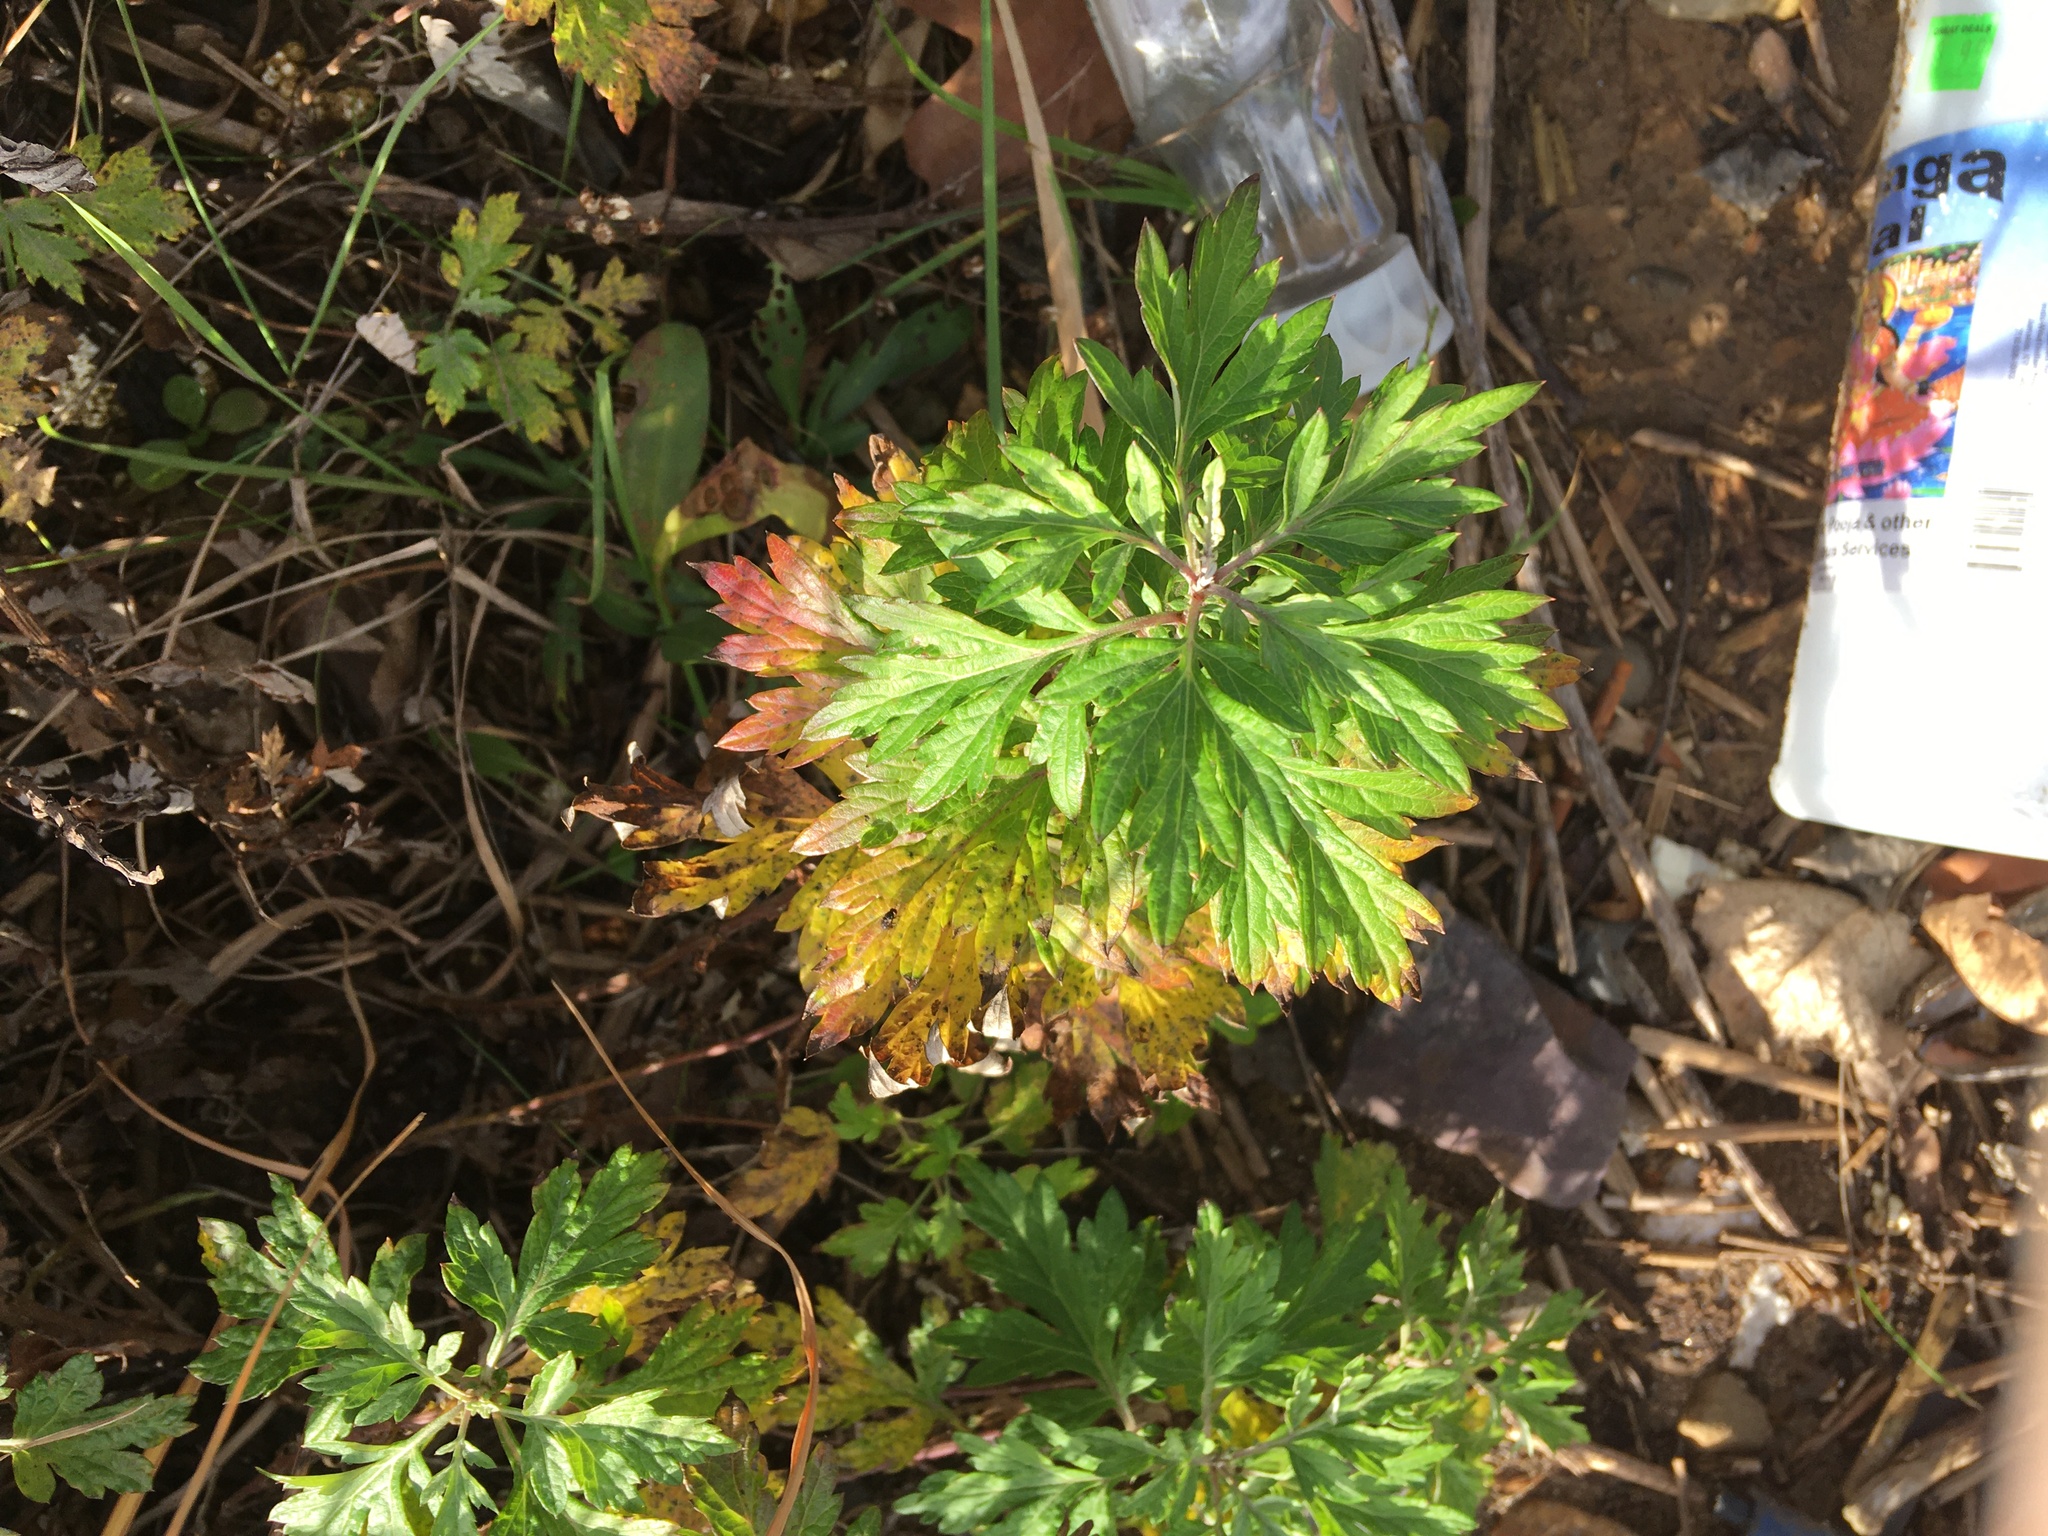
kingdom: Plantae
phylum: Tracheophyta
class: Magnoliopsida
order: Asterales
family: Asteraceae
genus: Artemisia
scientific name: Artemisia vulgaris
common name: Mugwort
